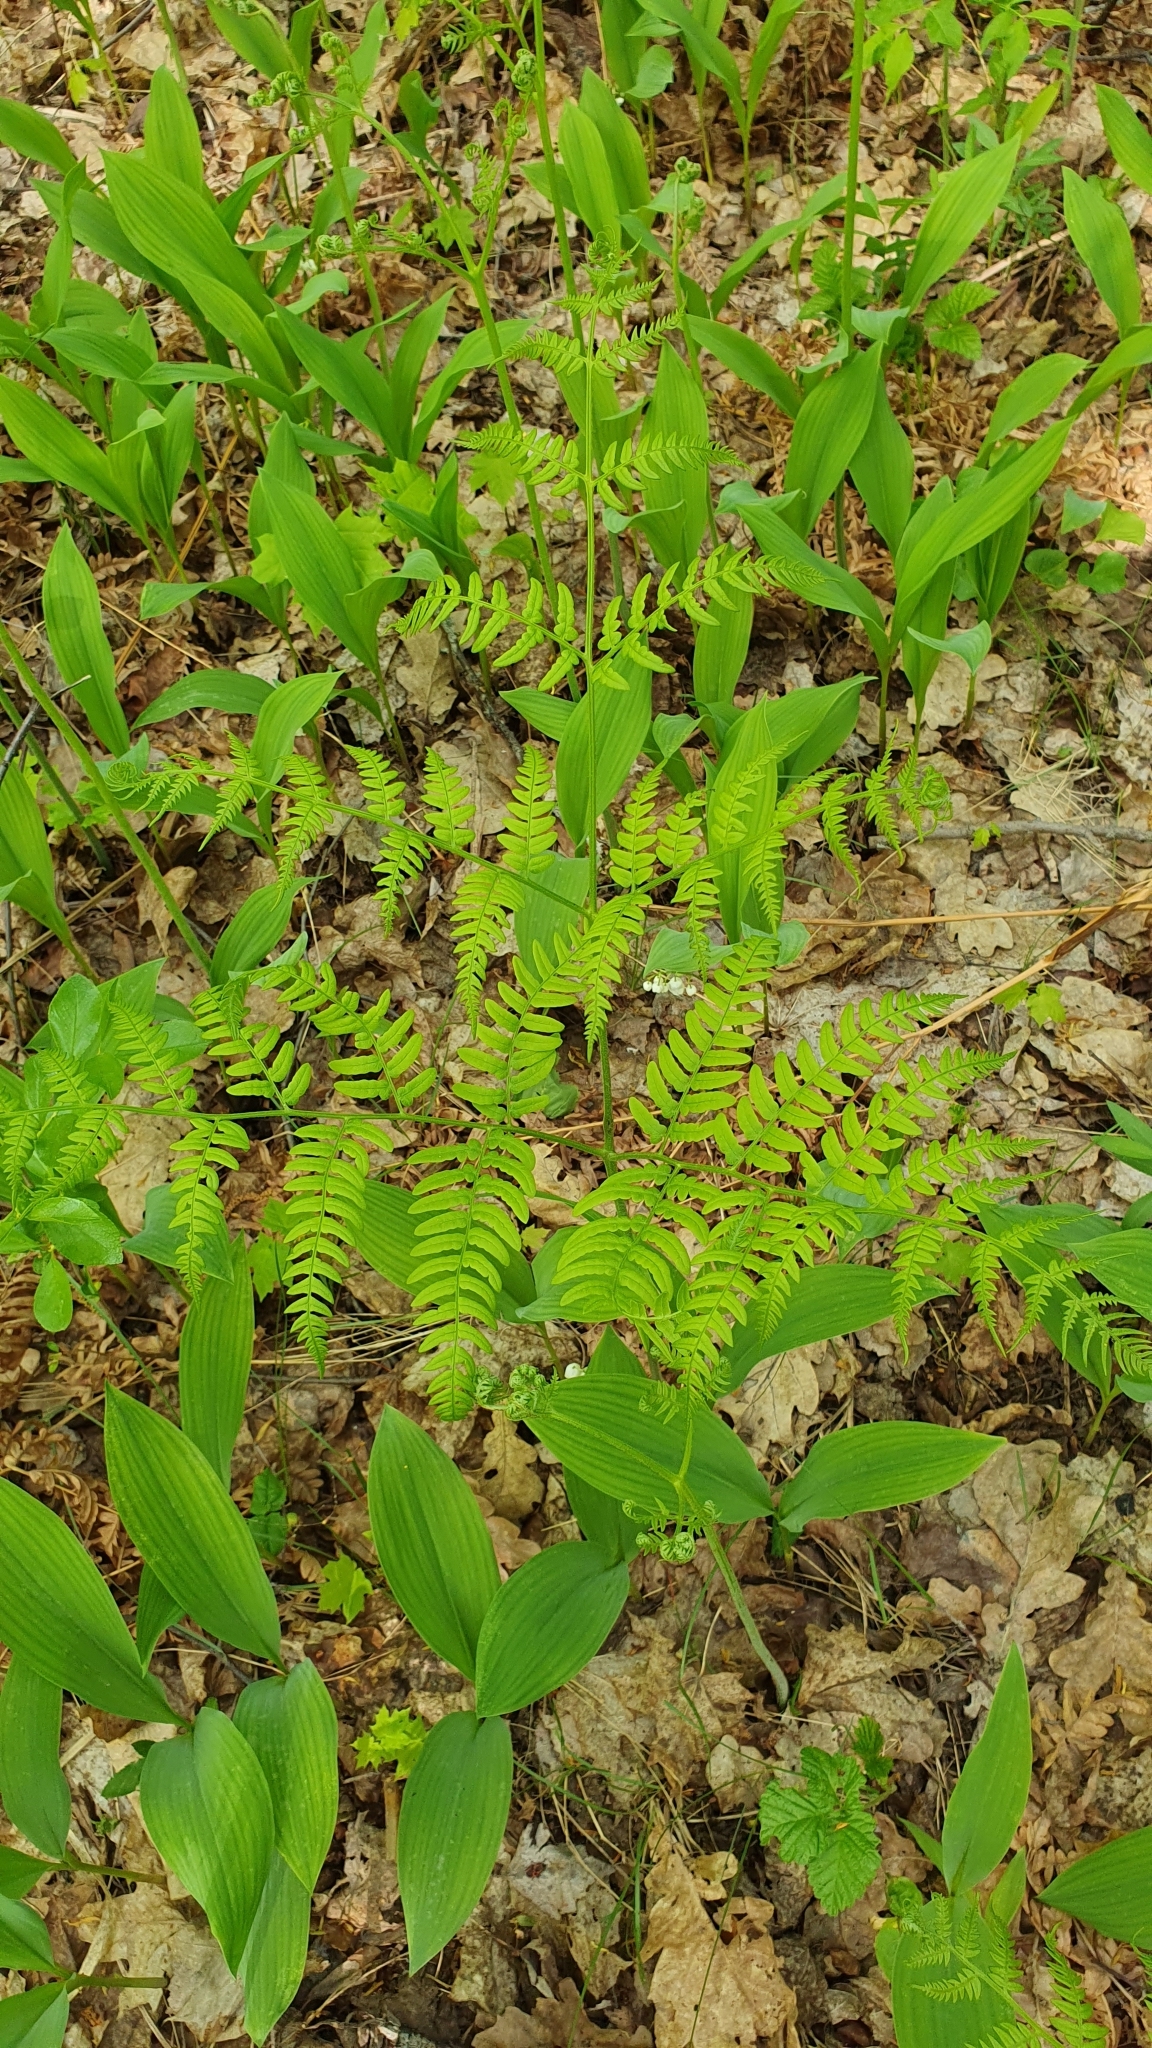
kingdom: Plantae
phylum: Tracheophyta
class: Polypodiopsida
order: Polypodiales
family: Dennstaedtiaceae
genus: Pteridium
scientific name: Pteridium aquilinum
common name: Bracken
